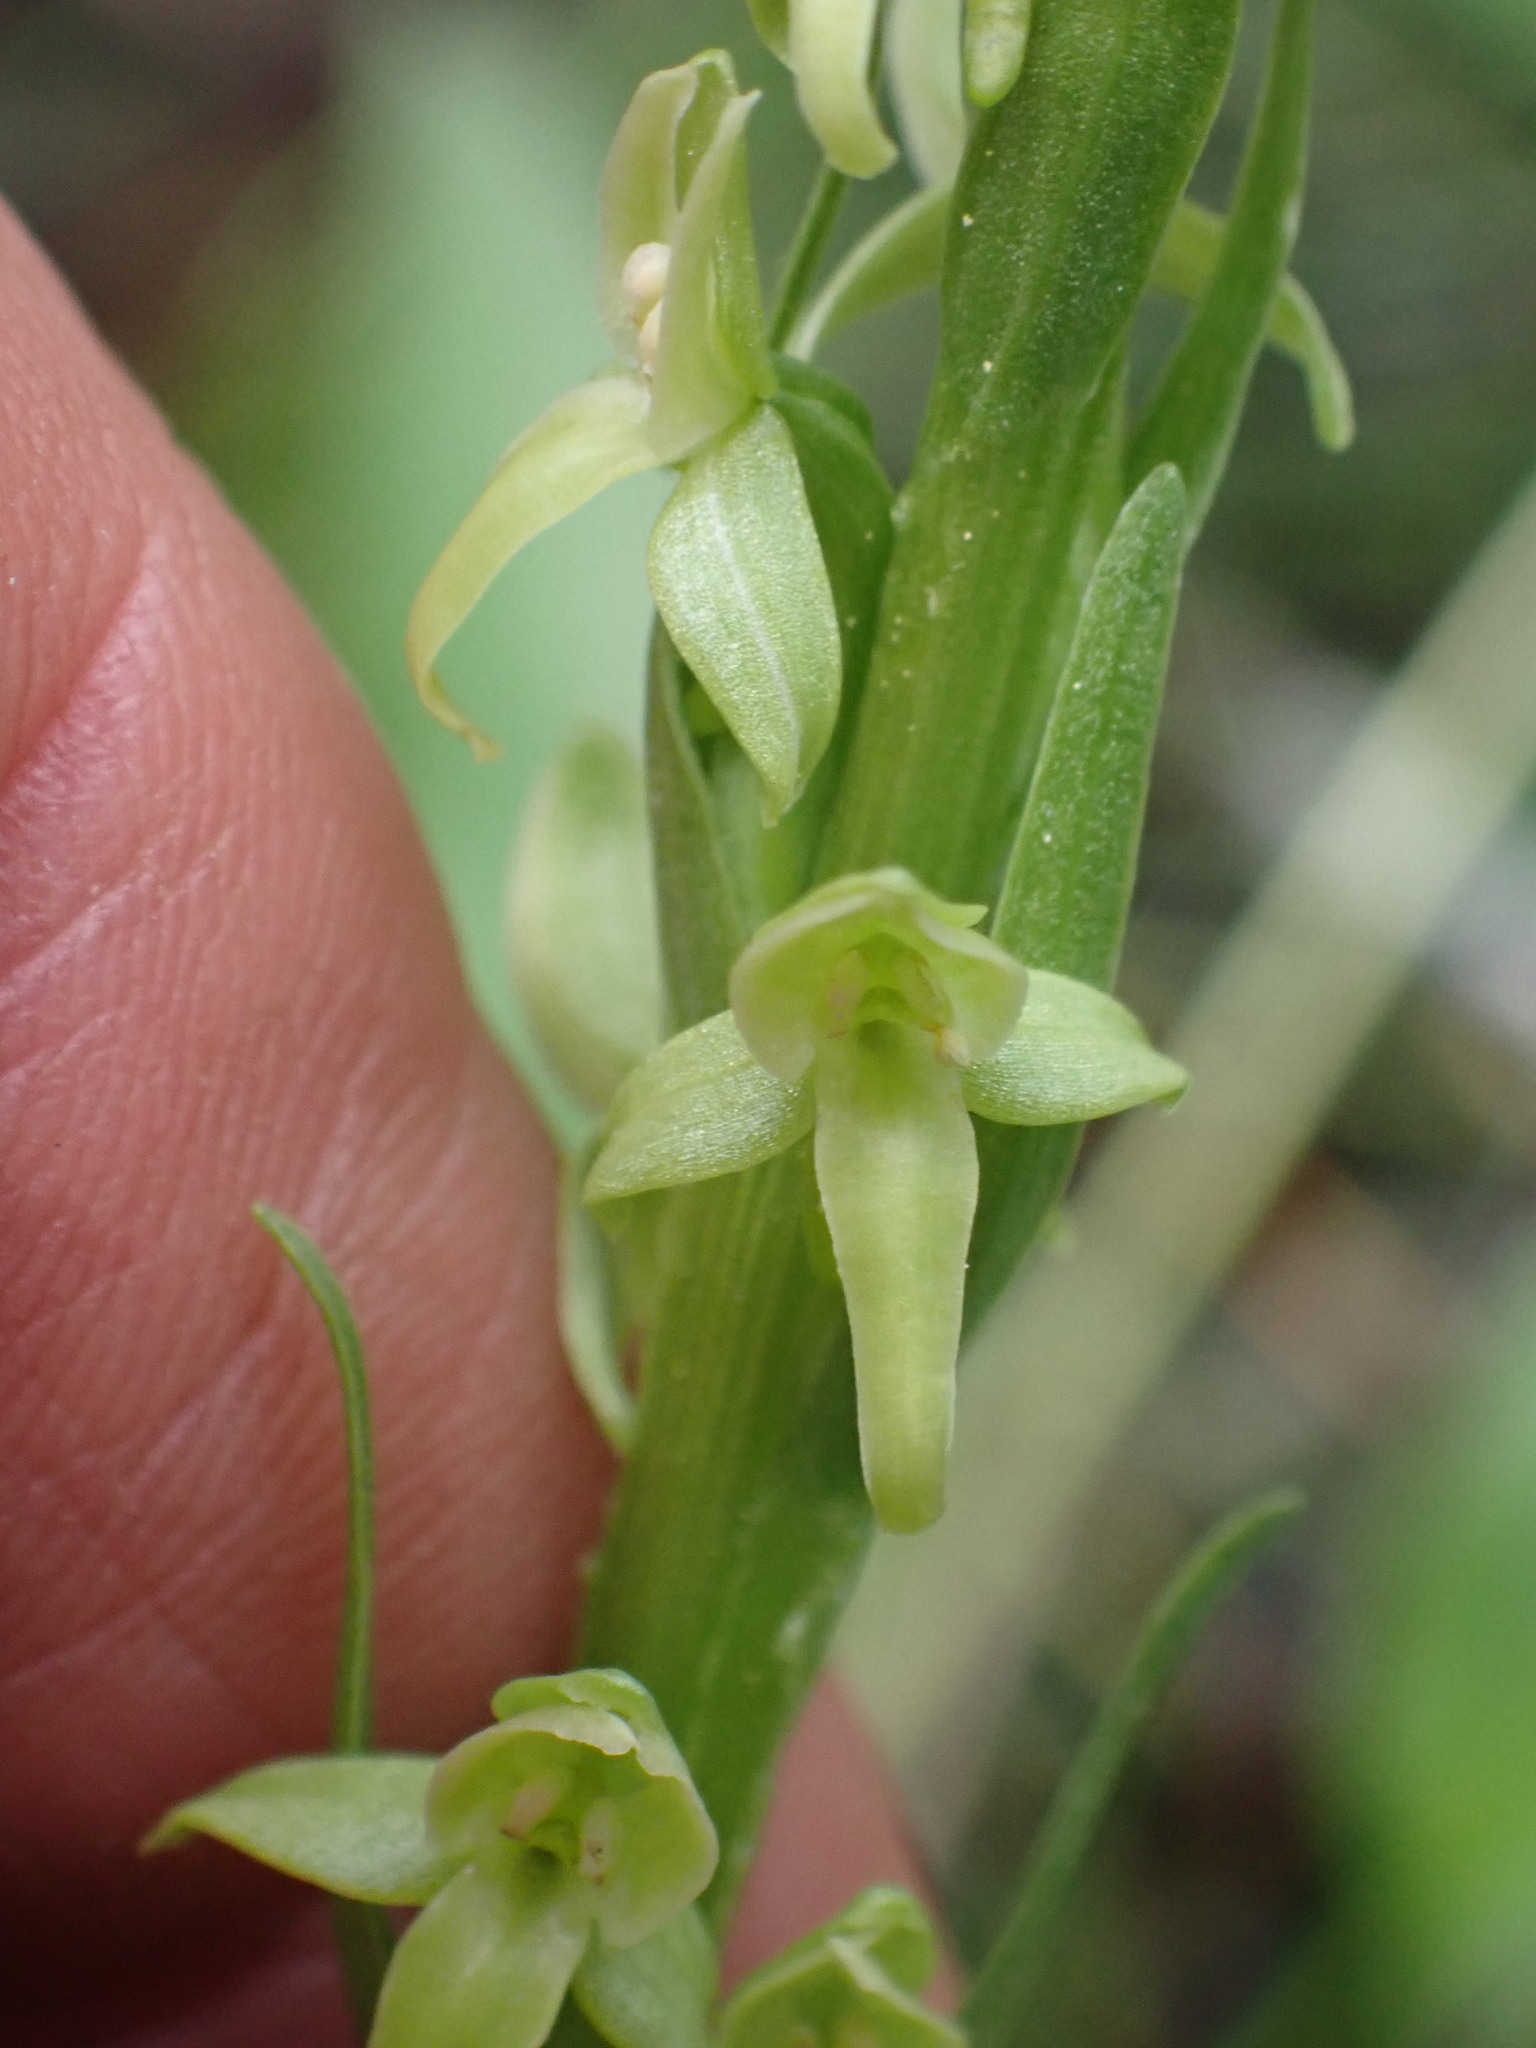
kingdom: Plantae
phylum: Tracheophyta
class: Liliopsida
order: Asparagales
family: Orchidaceae
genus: Platanthera
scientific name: Platanthera huronensis
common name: Fragrant green orchid
